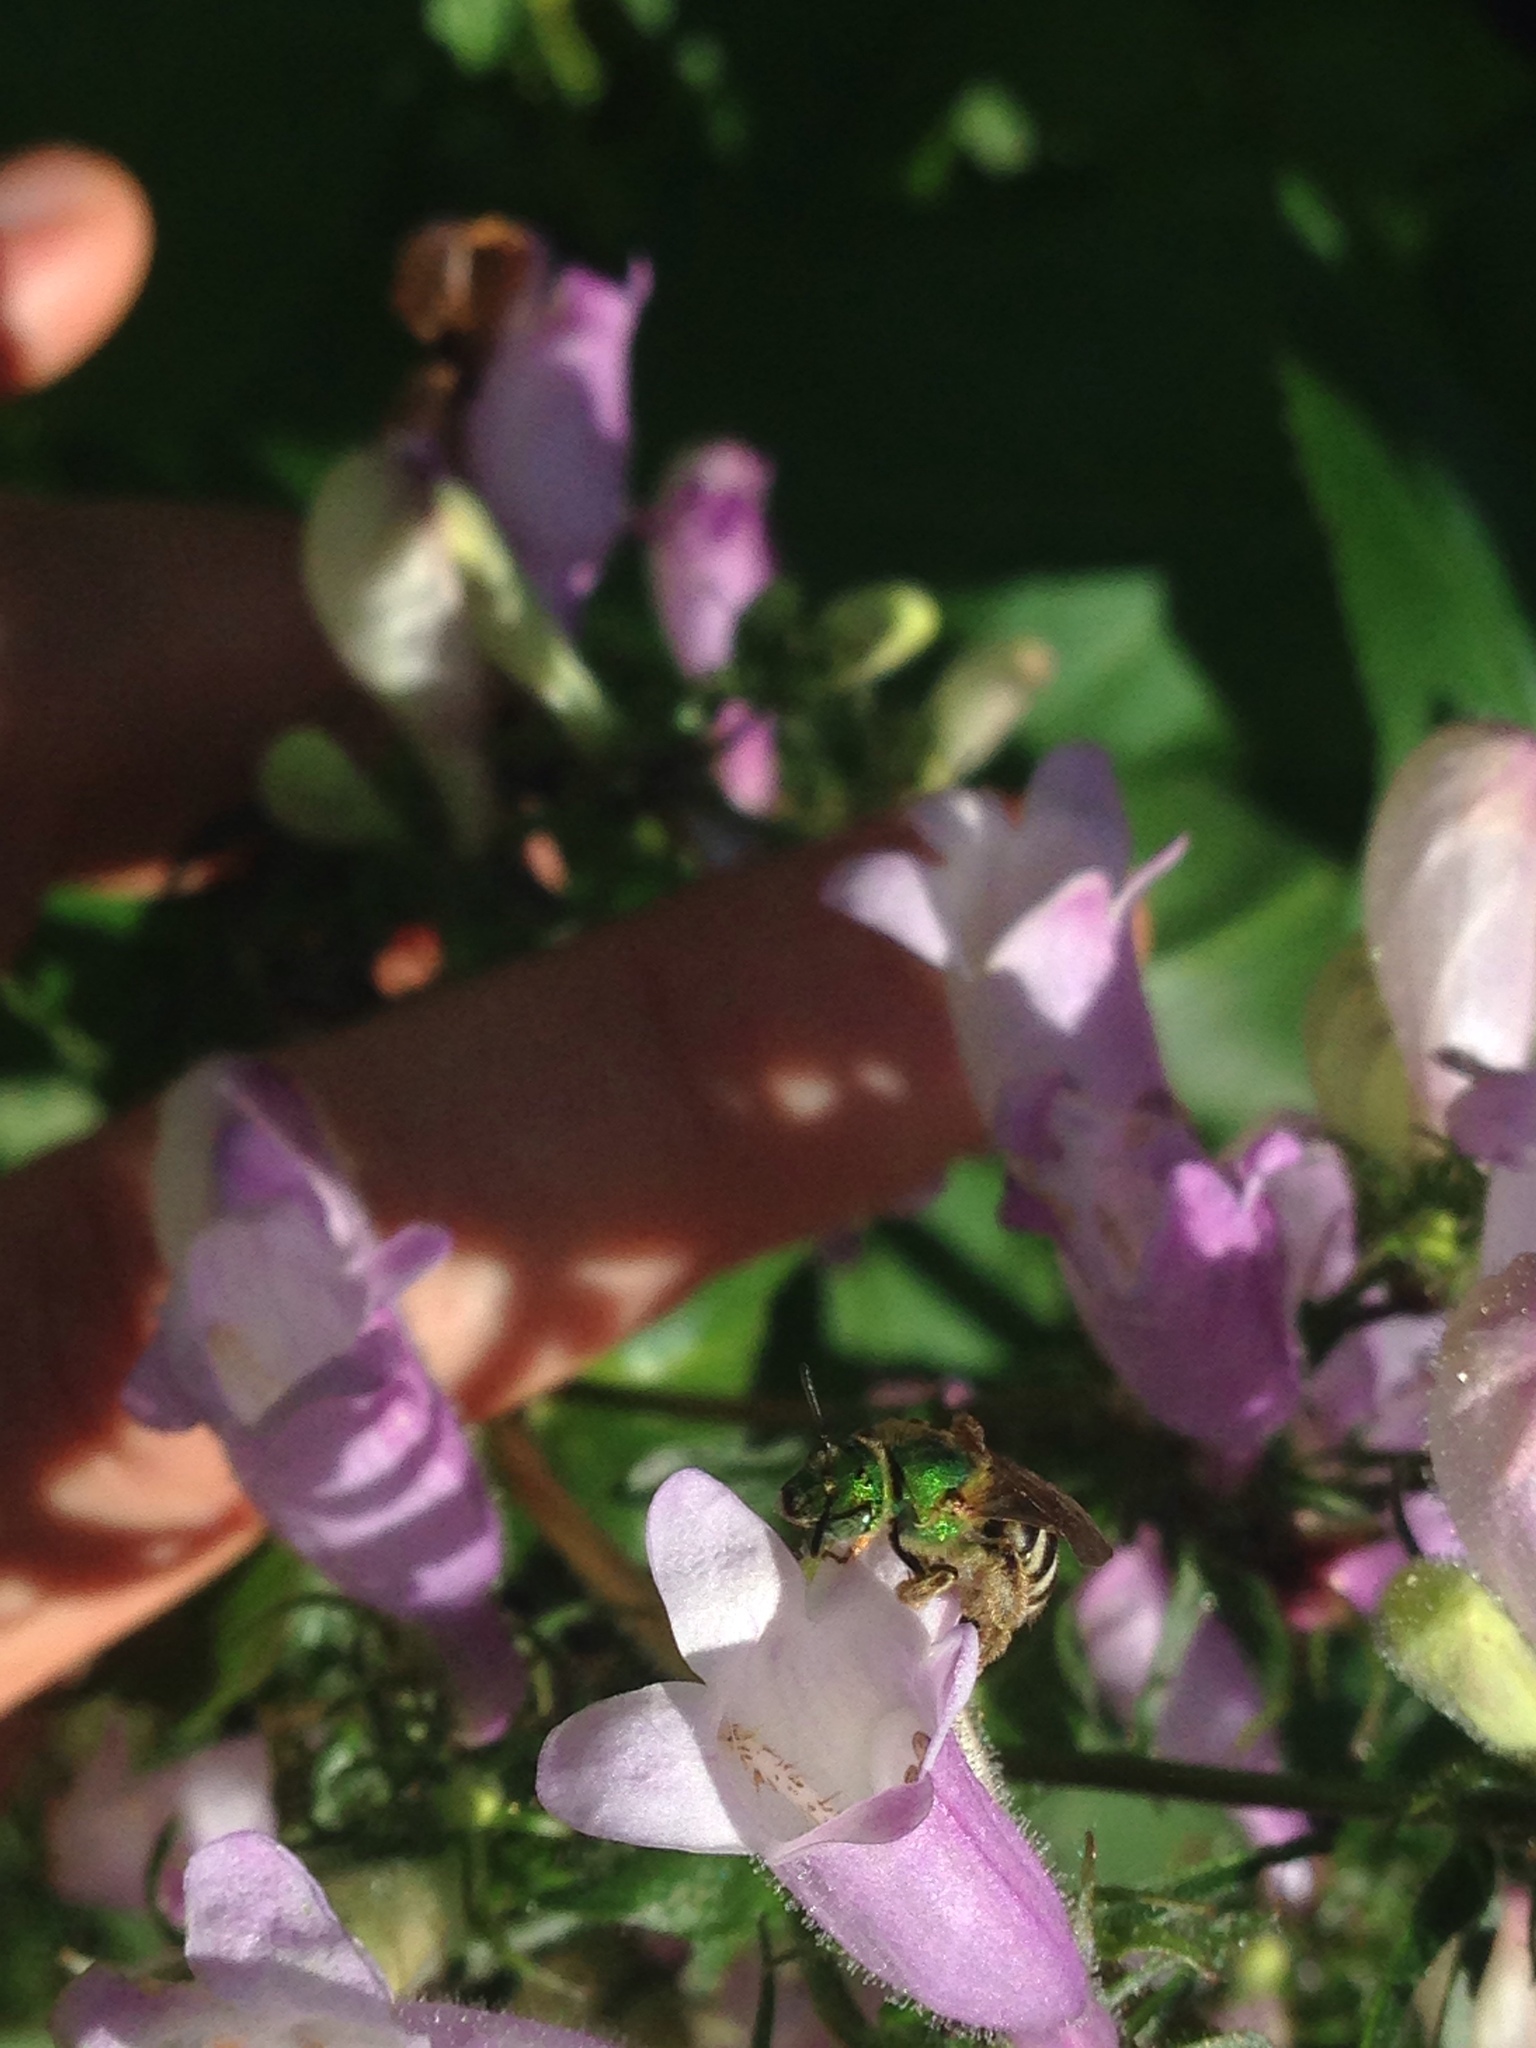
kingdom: Animalia
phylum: Arthropoda
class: Insecta
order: Hymenoptera
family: Halictidae
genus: Agapostemon
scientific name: Agapostemon virescens
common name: Bicolored striped sweat bee
